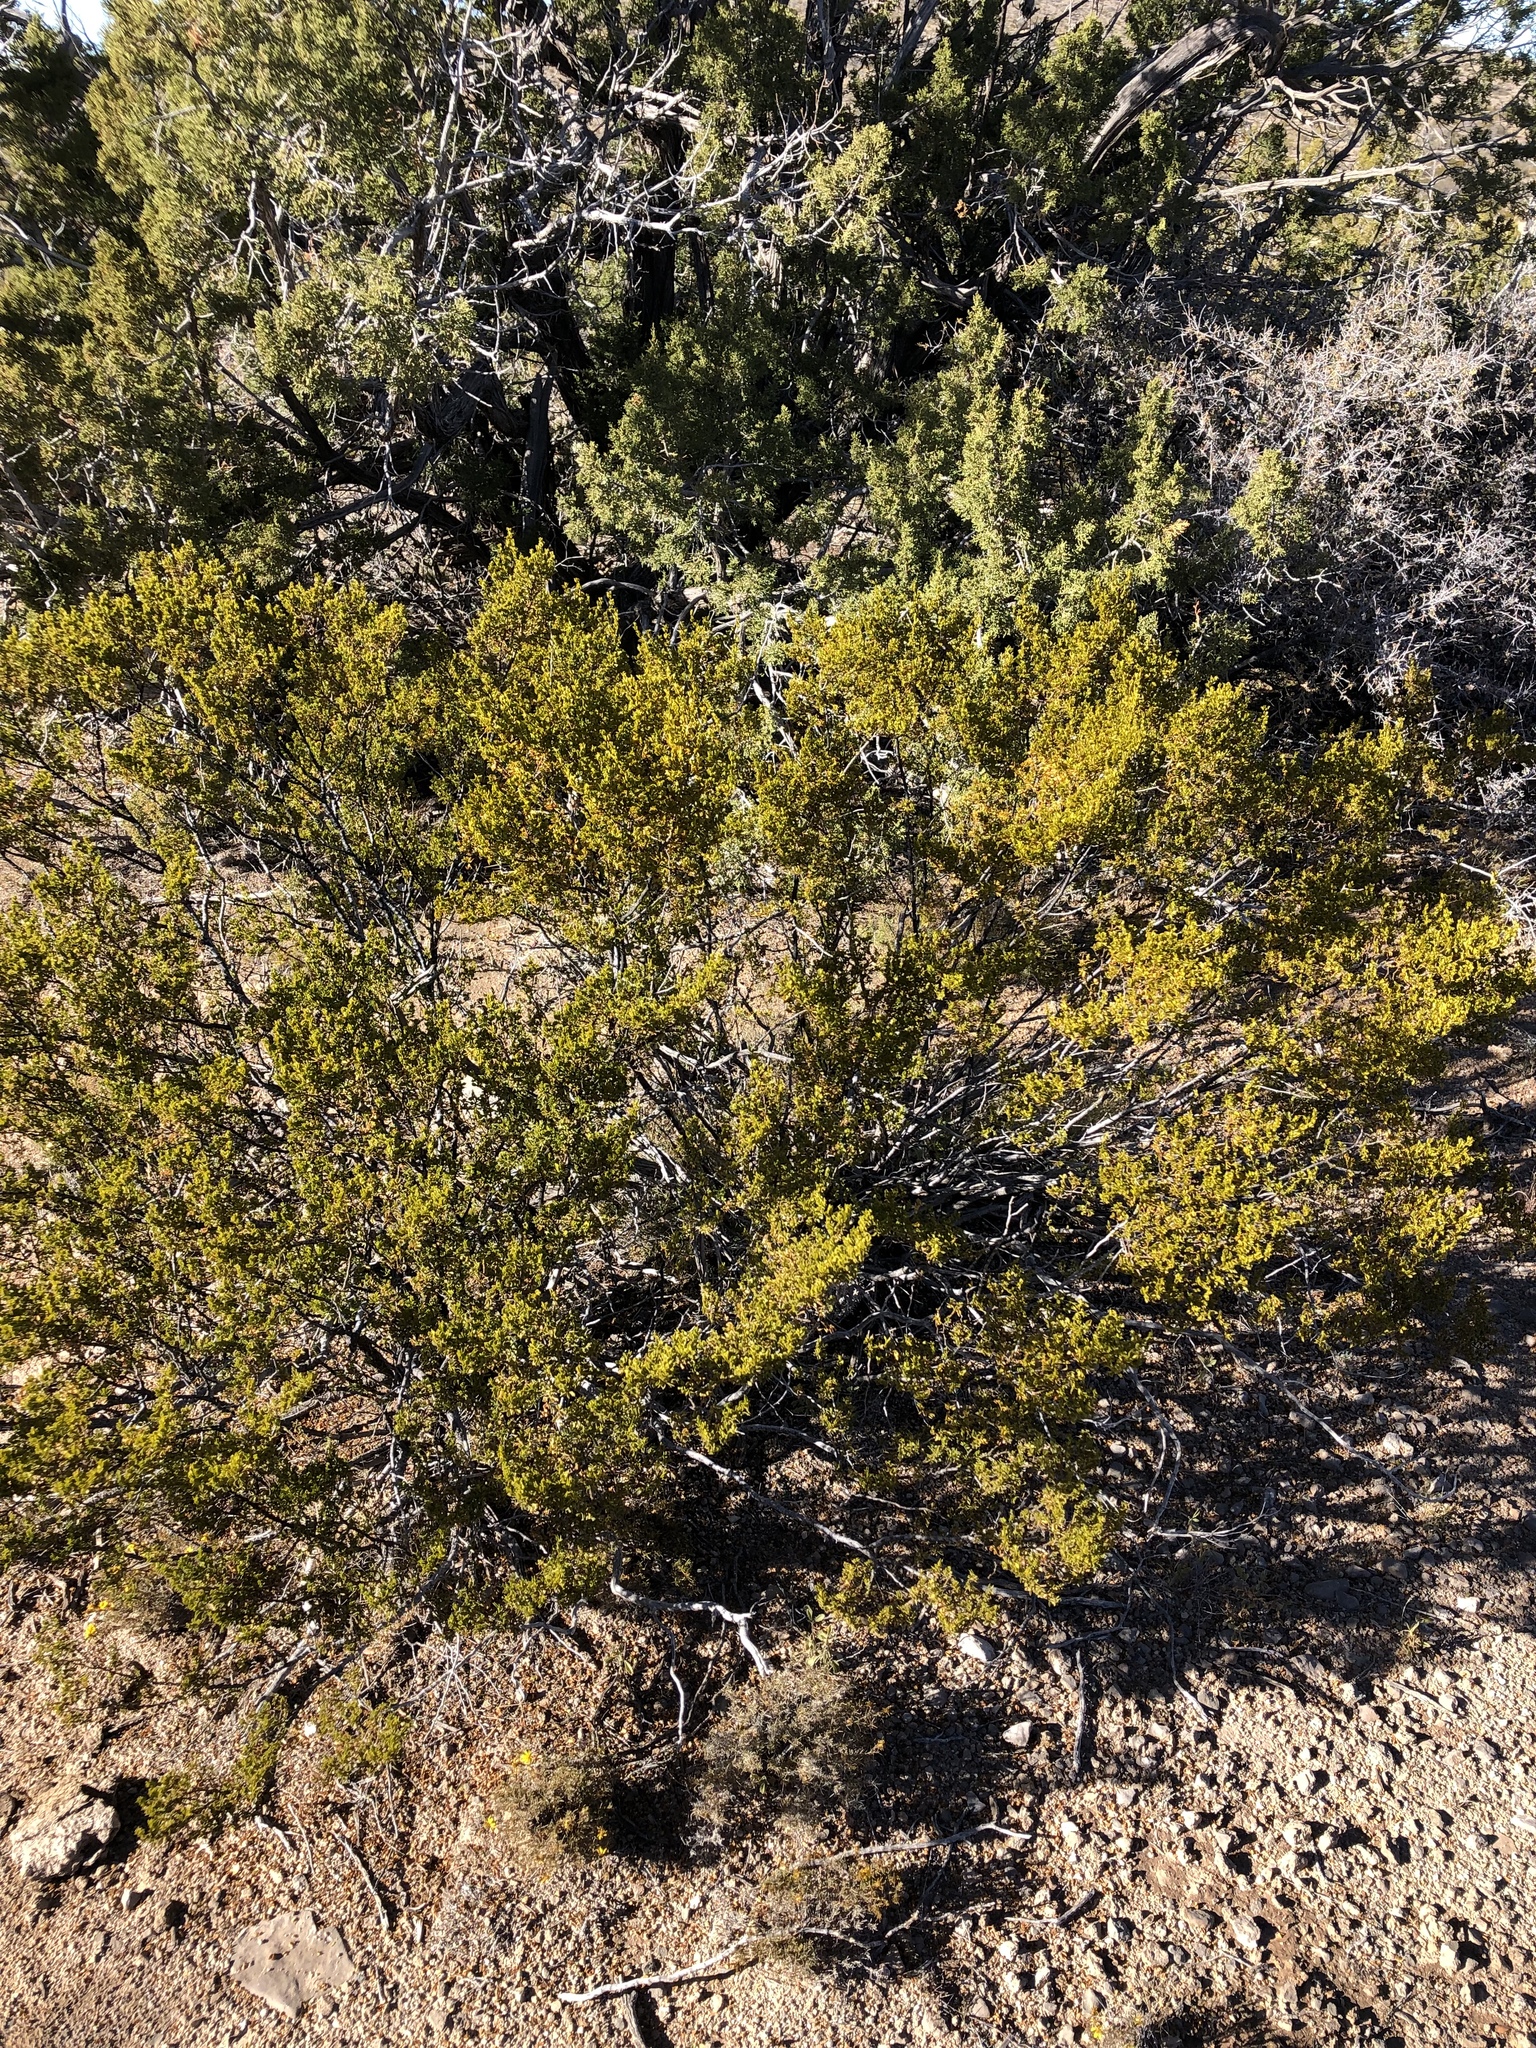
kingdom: Plantae
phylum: Tracheophyta
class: Magnoliopsida
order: Zygophyllales
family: Zygophyllaceae
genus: Larrea
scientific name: Larrea tridentata
